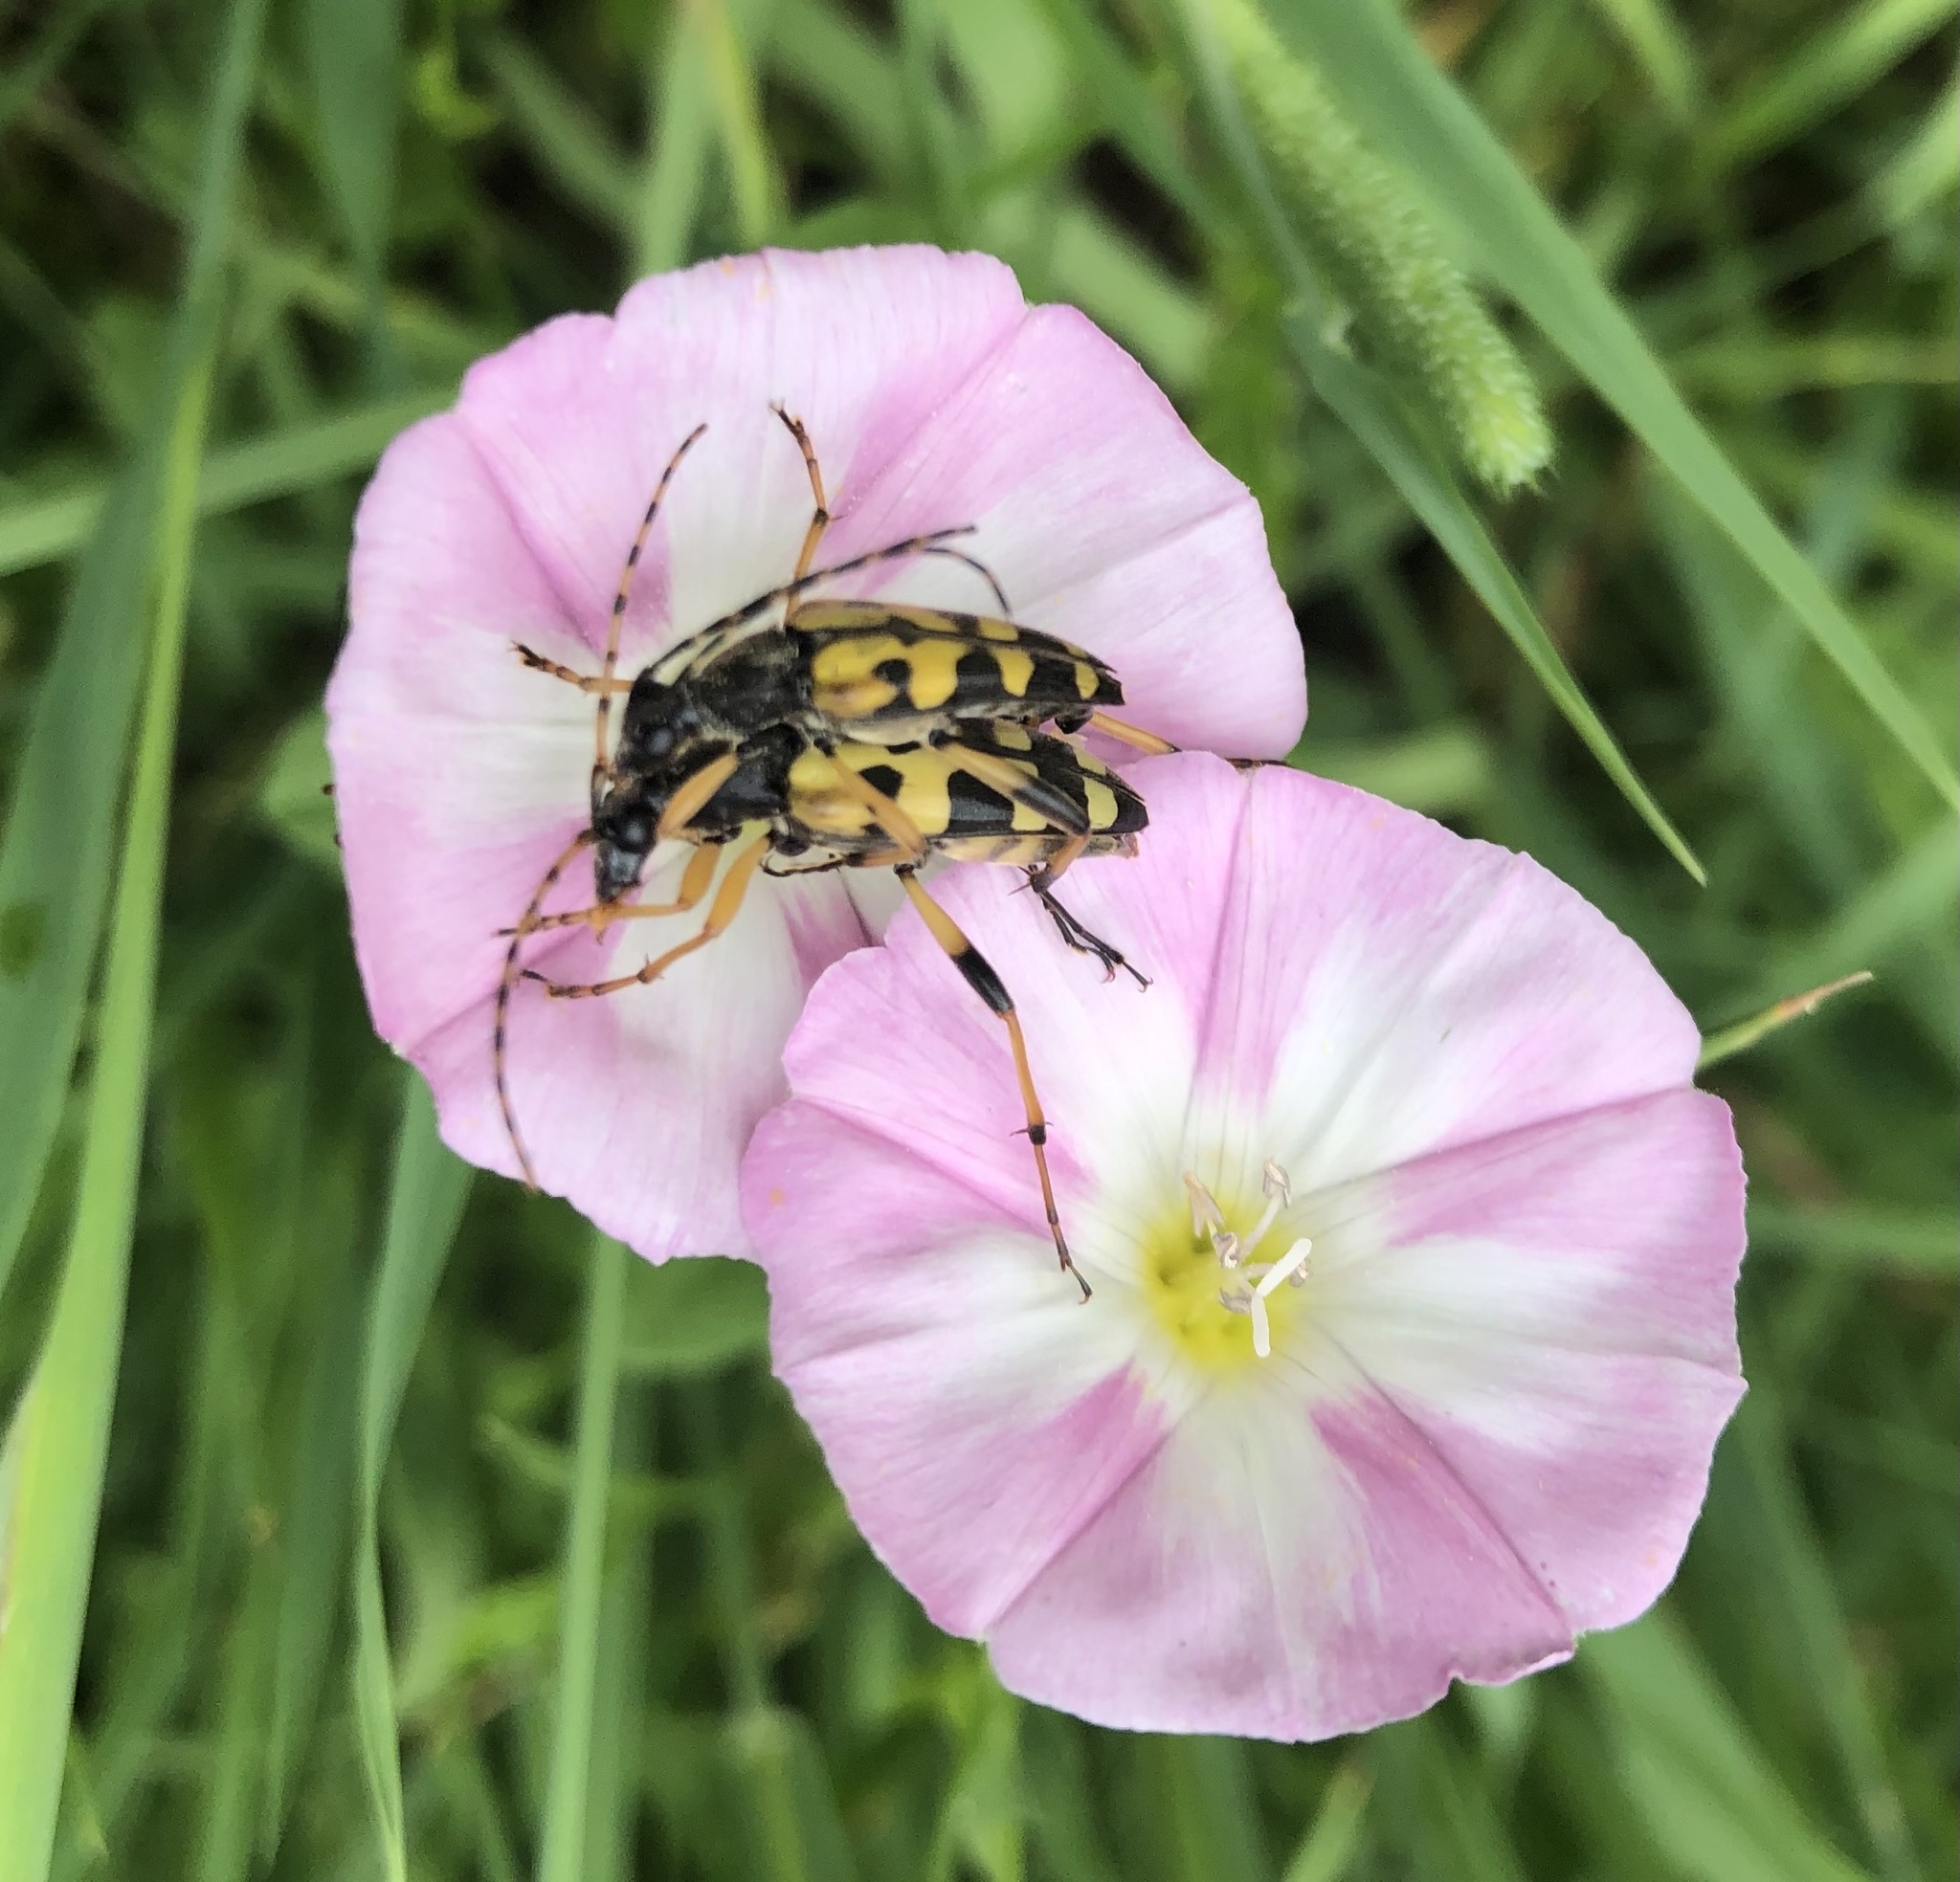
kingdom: Animalia
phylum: Arthropoda
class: Insecta
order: Coleoptera
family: Cerambycidae
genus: Rutpela
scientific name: Rutpela maculata
